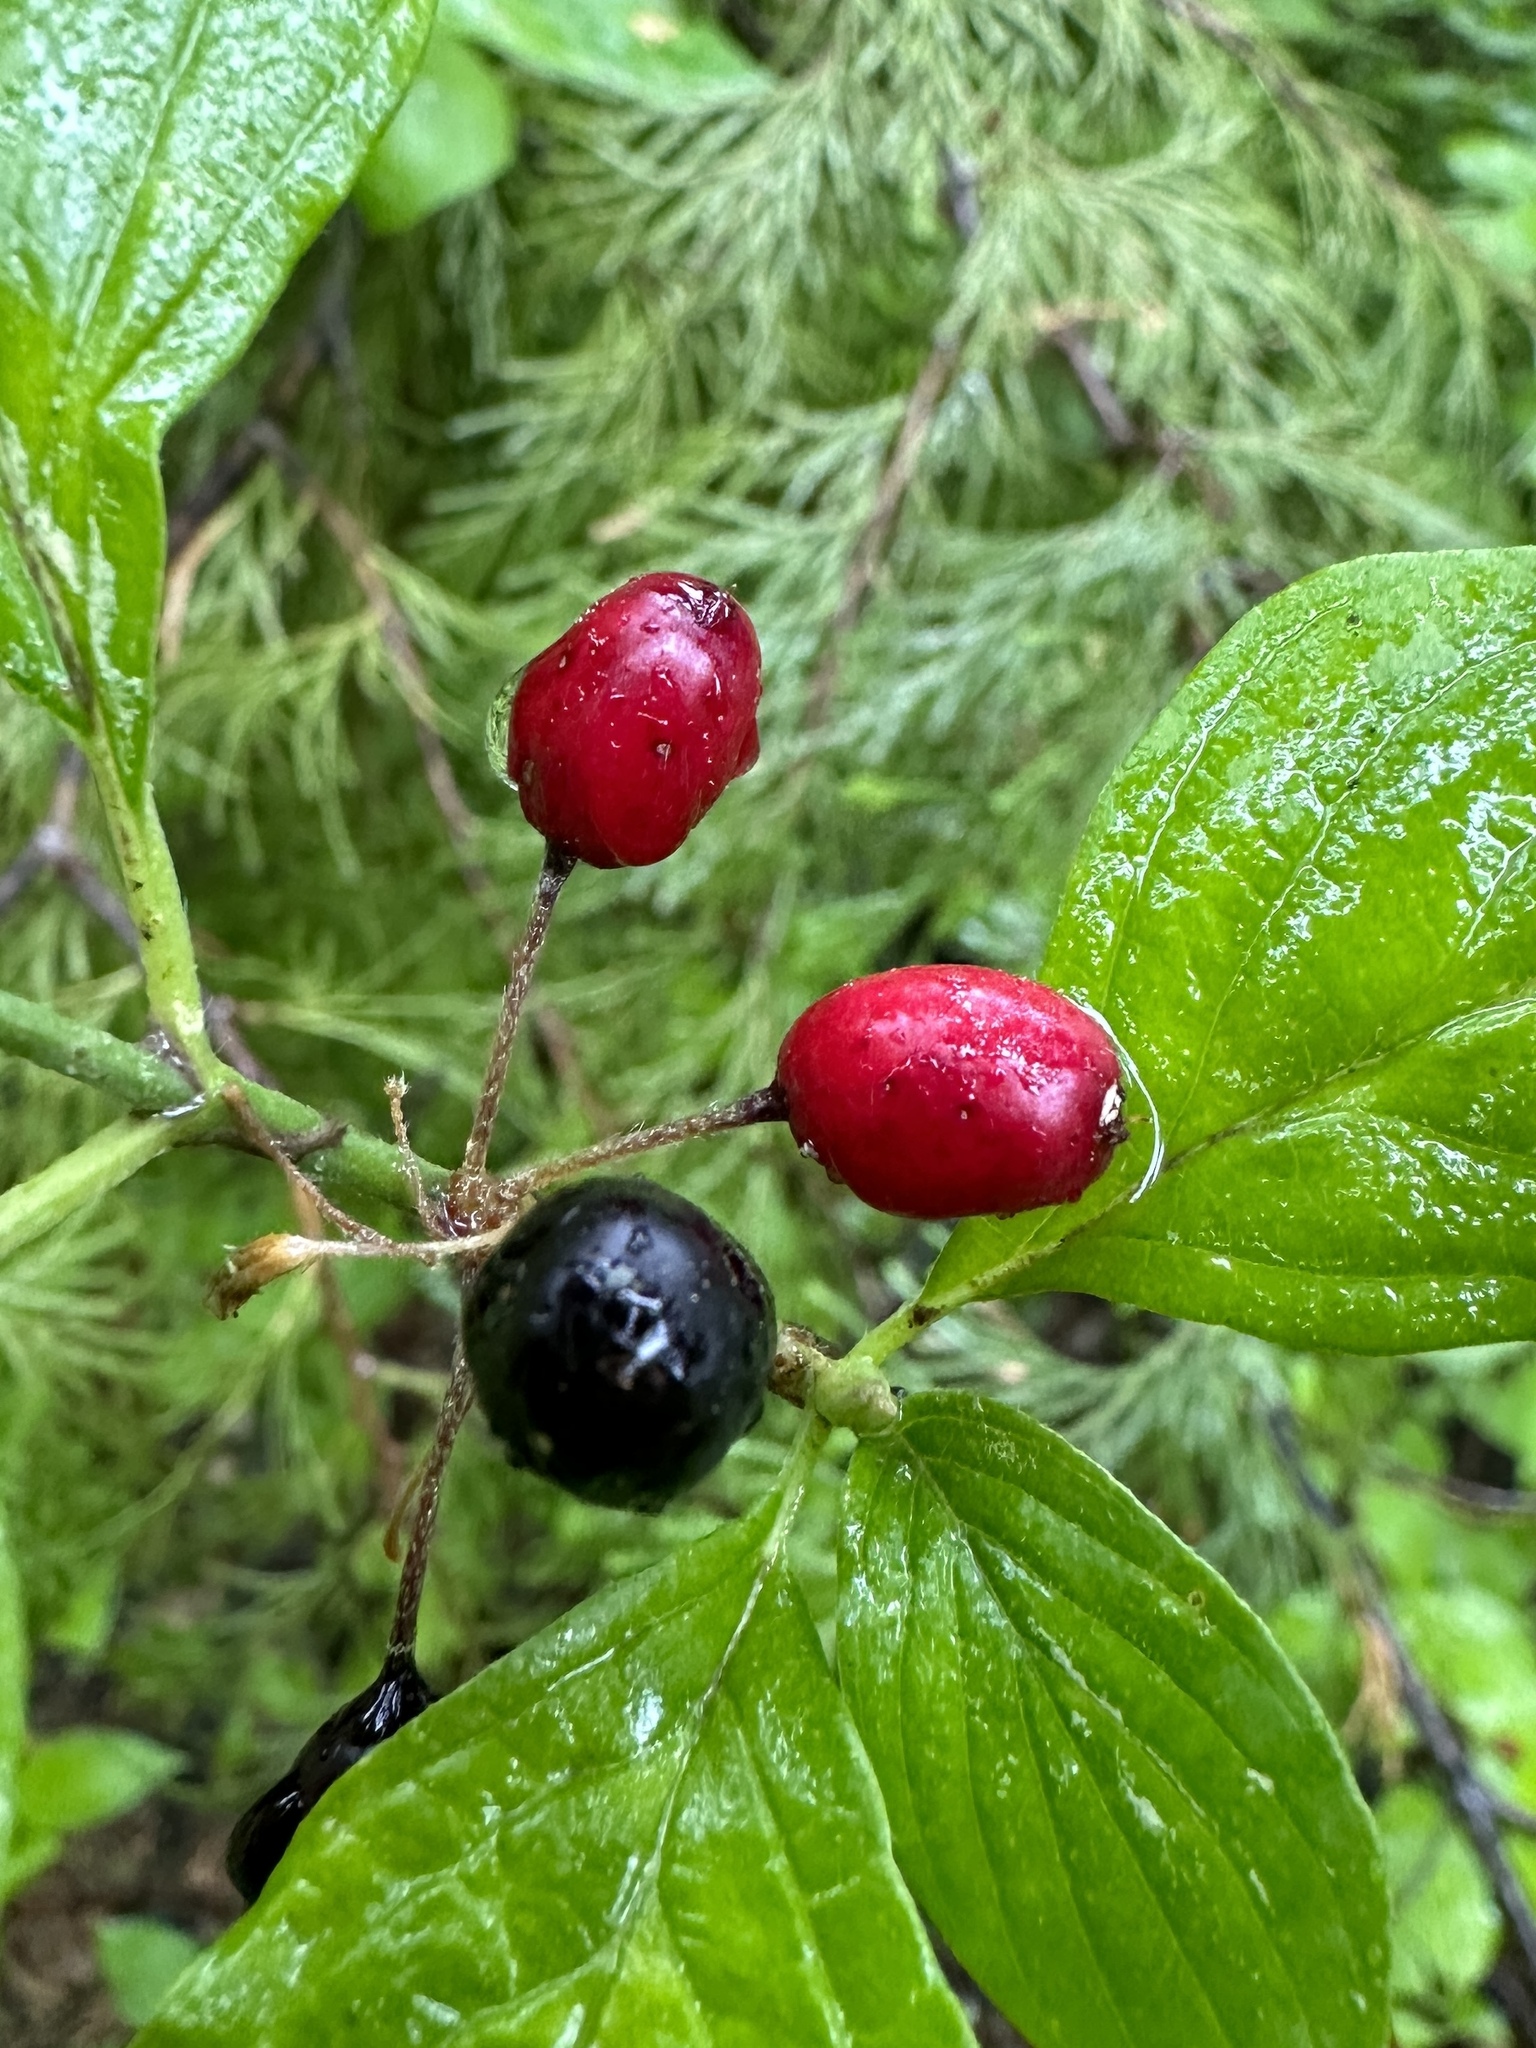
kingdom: Plantae
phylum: Tracheophyta
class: Magnoliopsida
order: Cornales
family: Cornaceae
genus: Cornus
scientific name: Cornus sessilis
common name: Blackfruit dogwood
